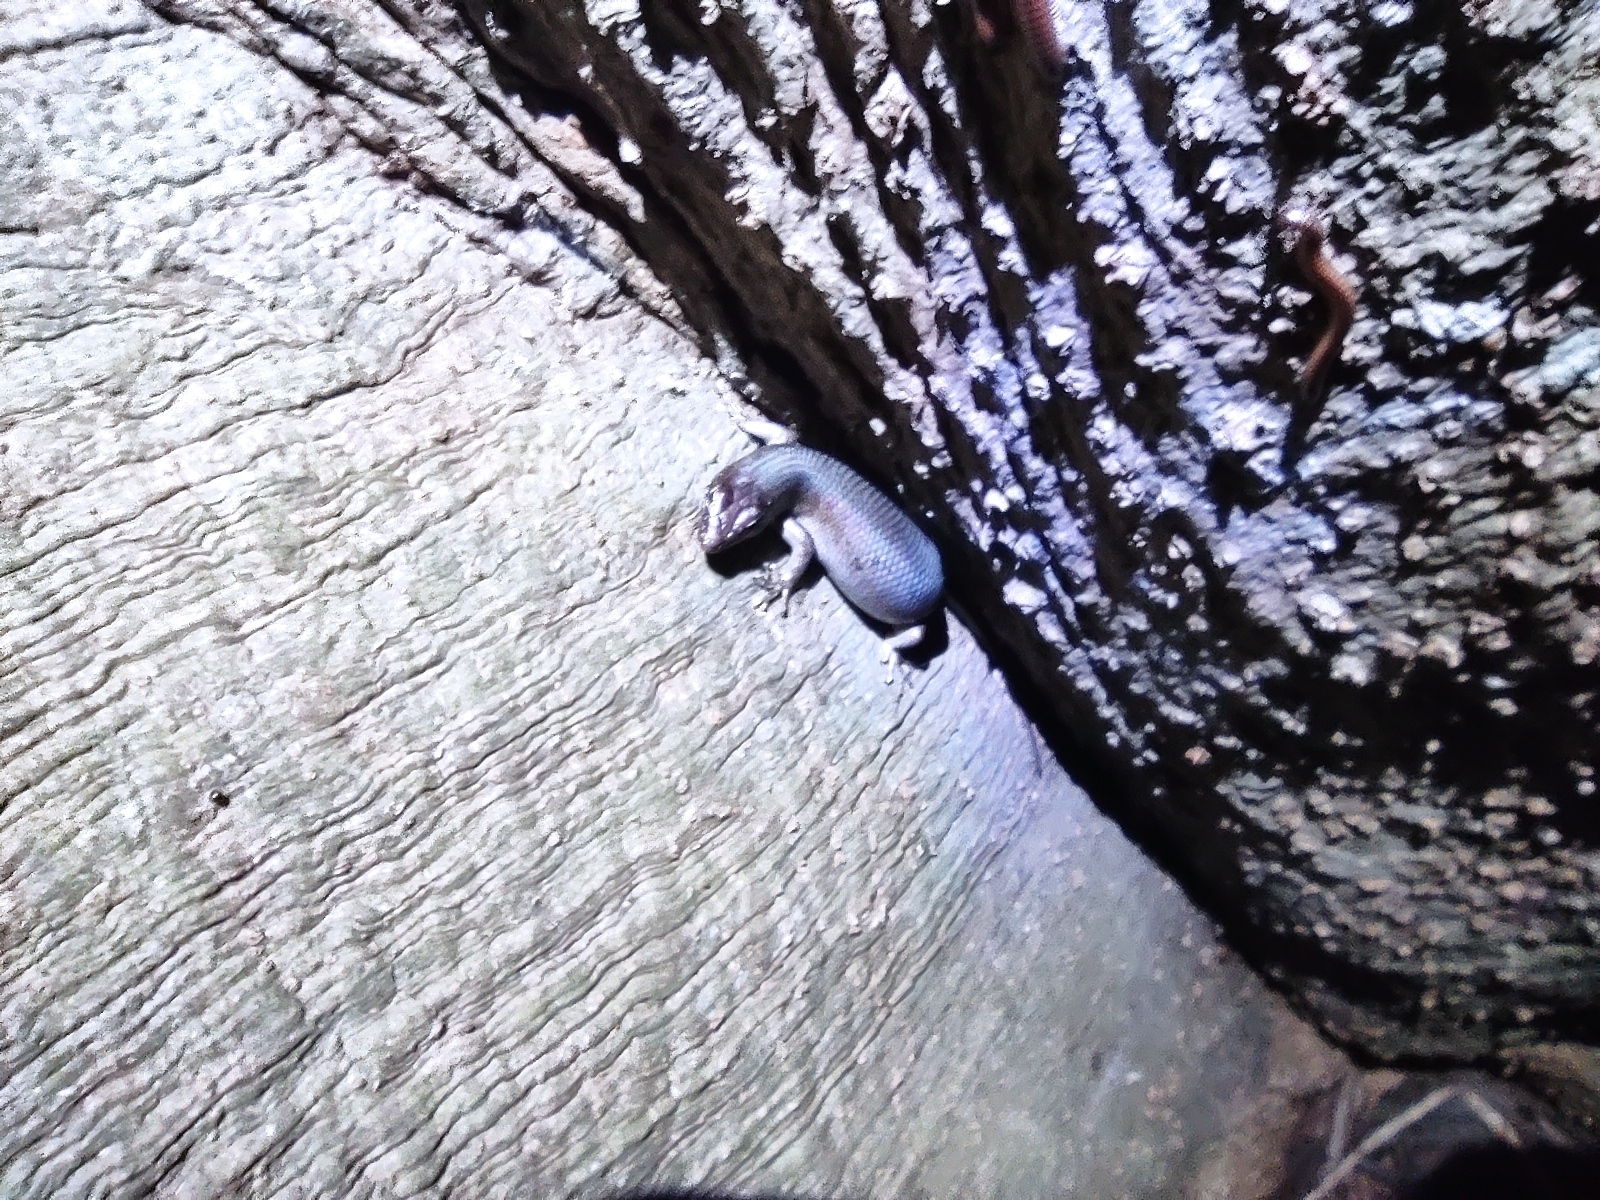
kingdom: Animalia
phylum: Chordata
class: Squamata
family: Scincidae
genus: Trachylepis
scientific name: Trachylepis comorensis
